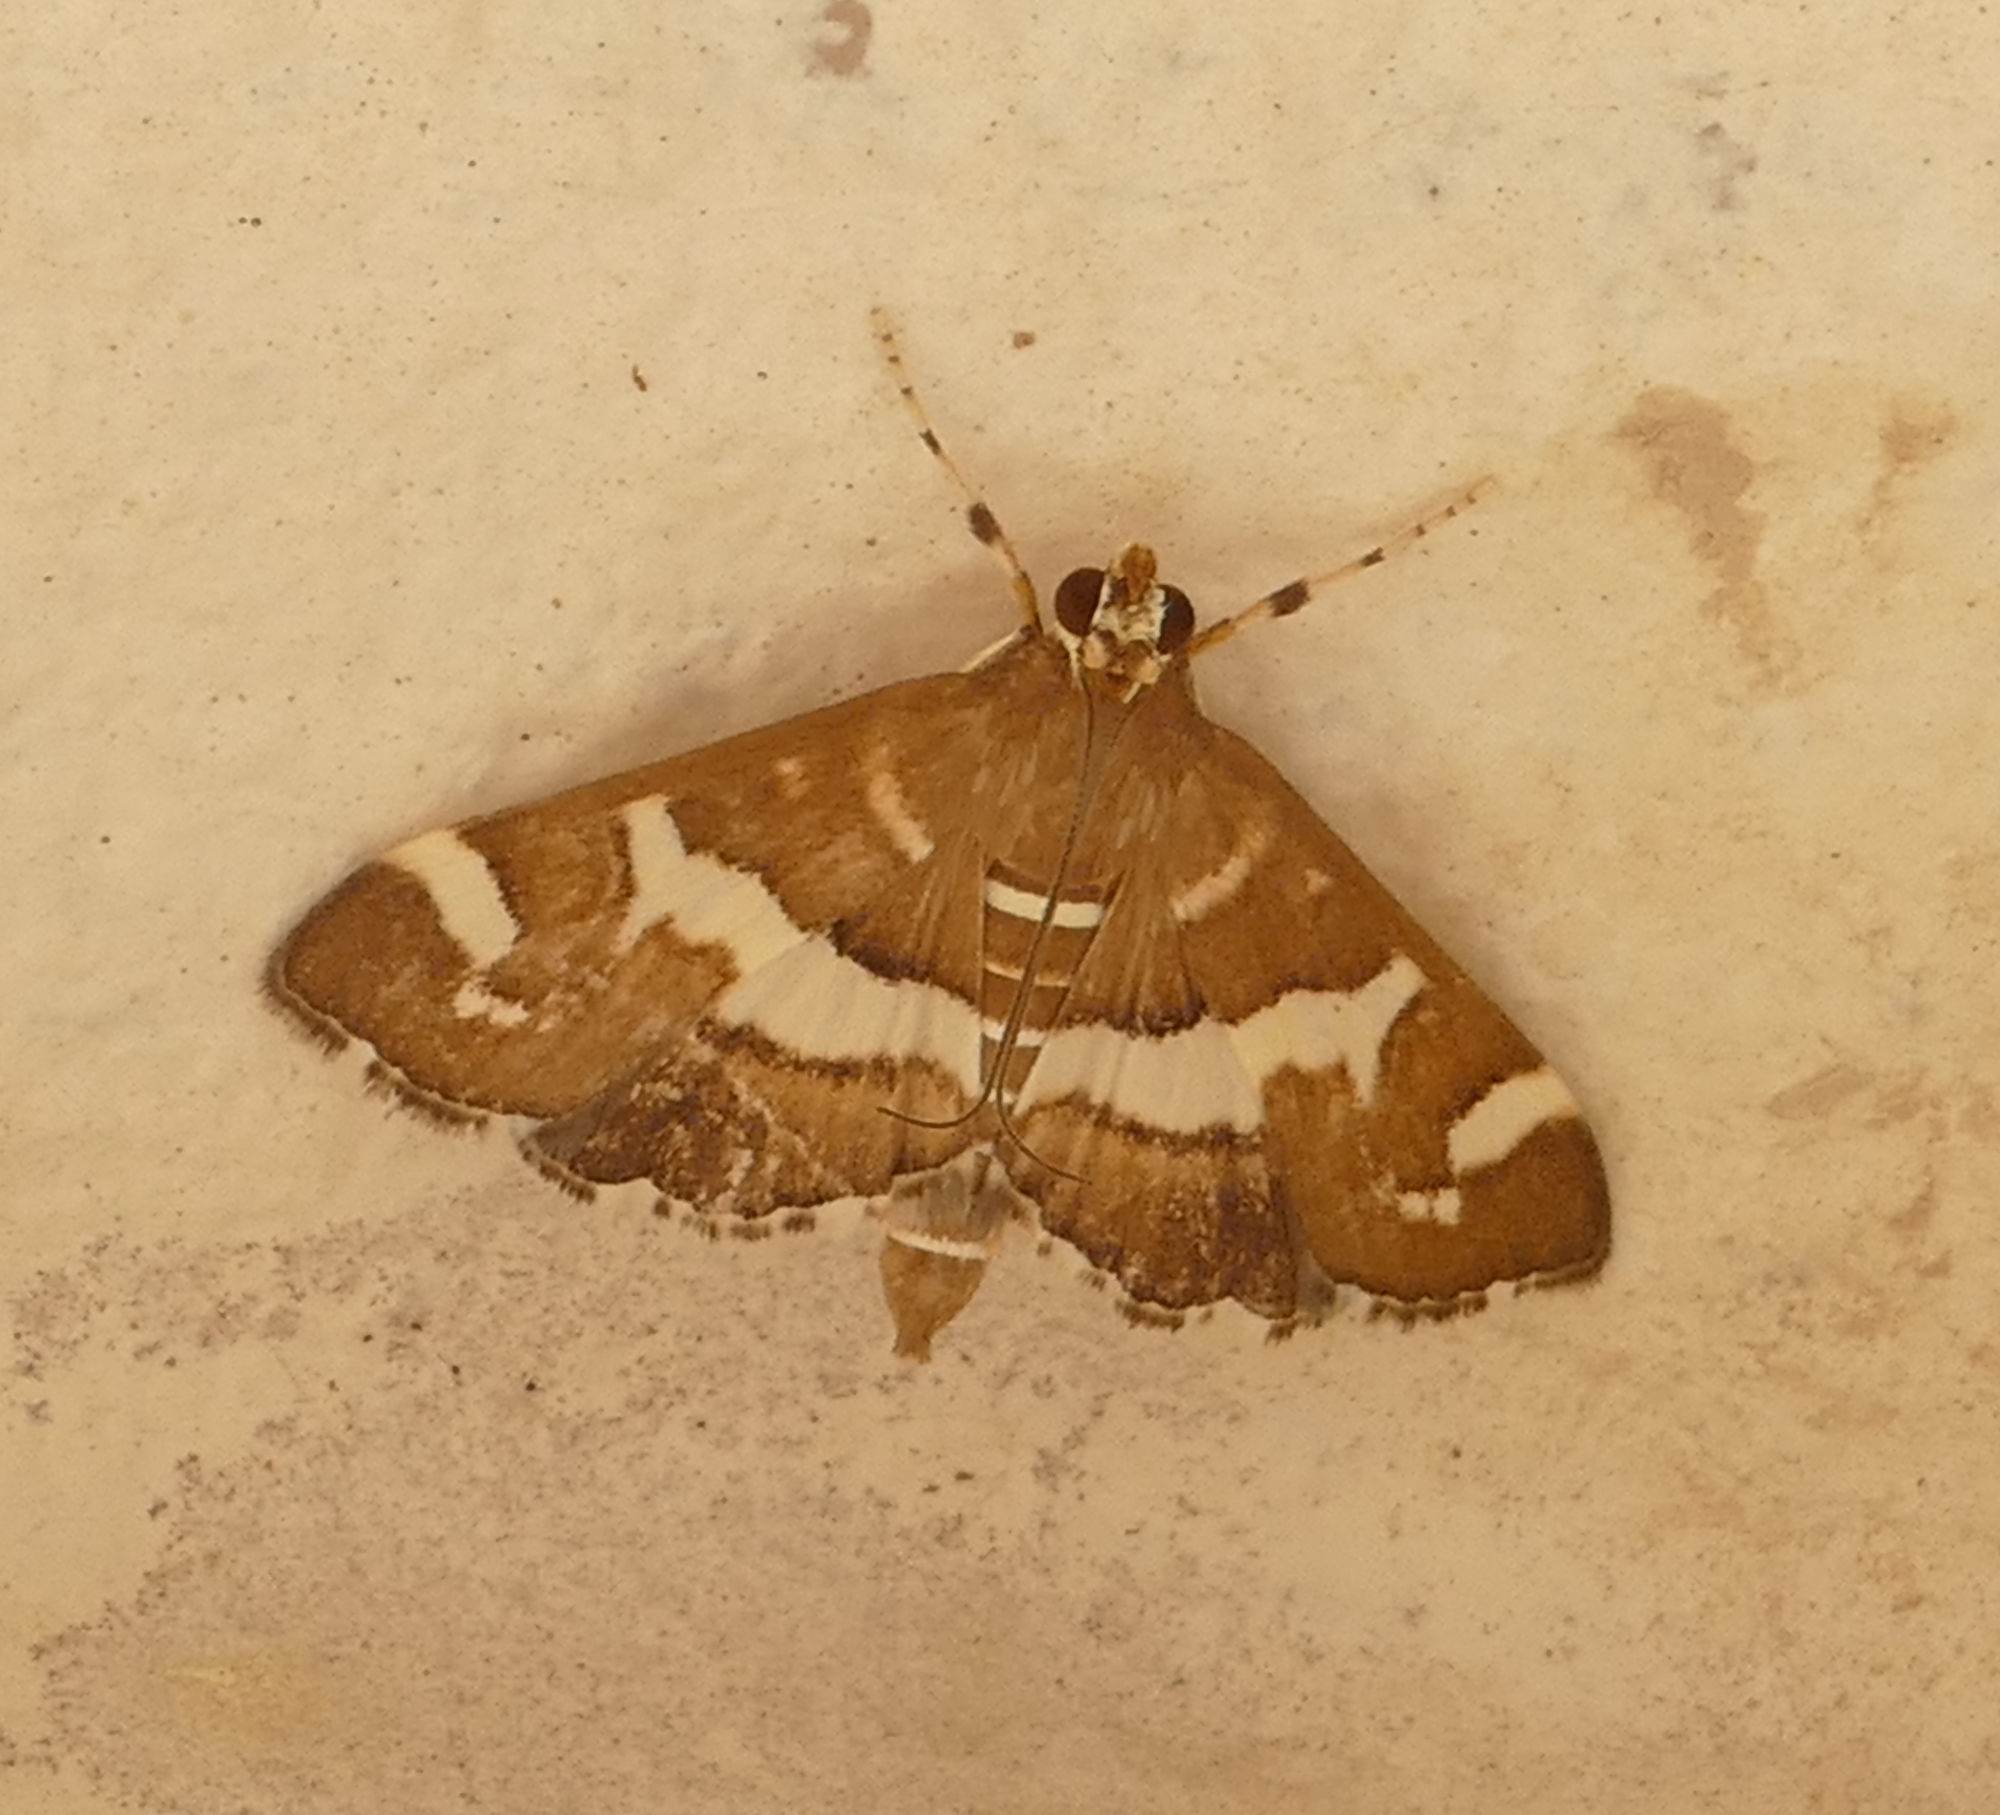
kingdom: Animalia
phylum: Arthropoda
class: Insecta
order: Lepidoptera
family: Crambidae
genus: Spoladea
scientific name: Spoladea recurvalis
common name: Beet webworm moth
